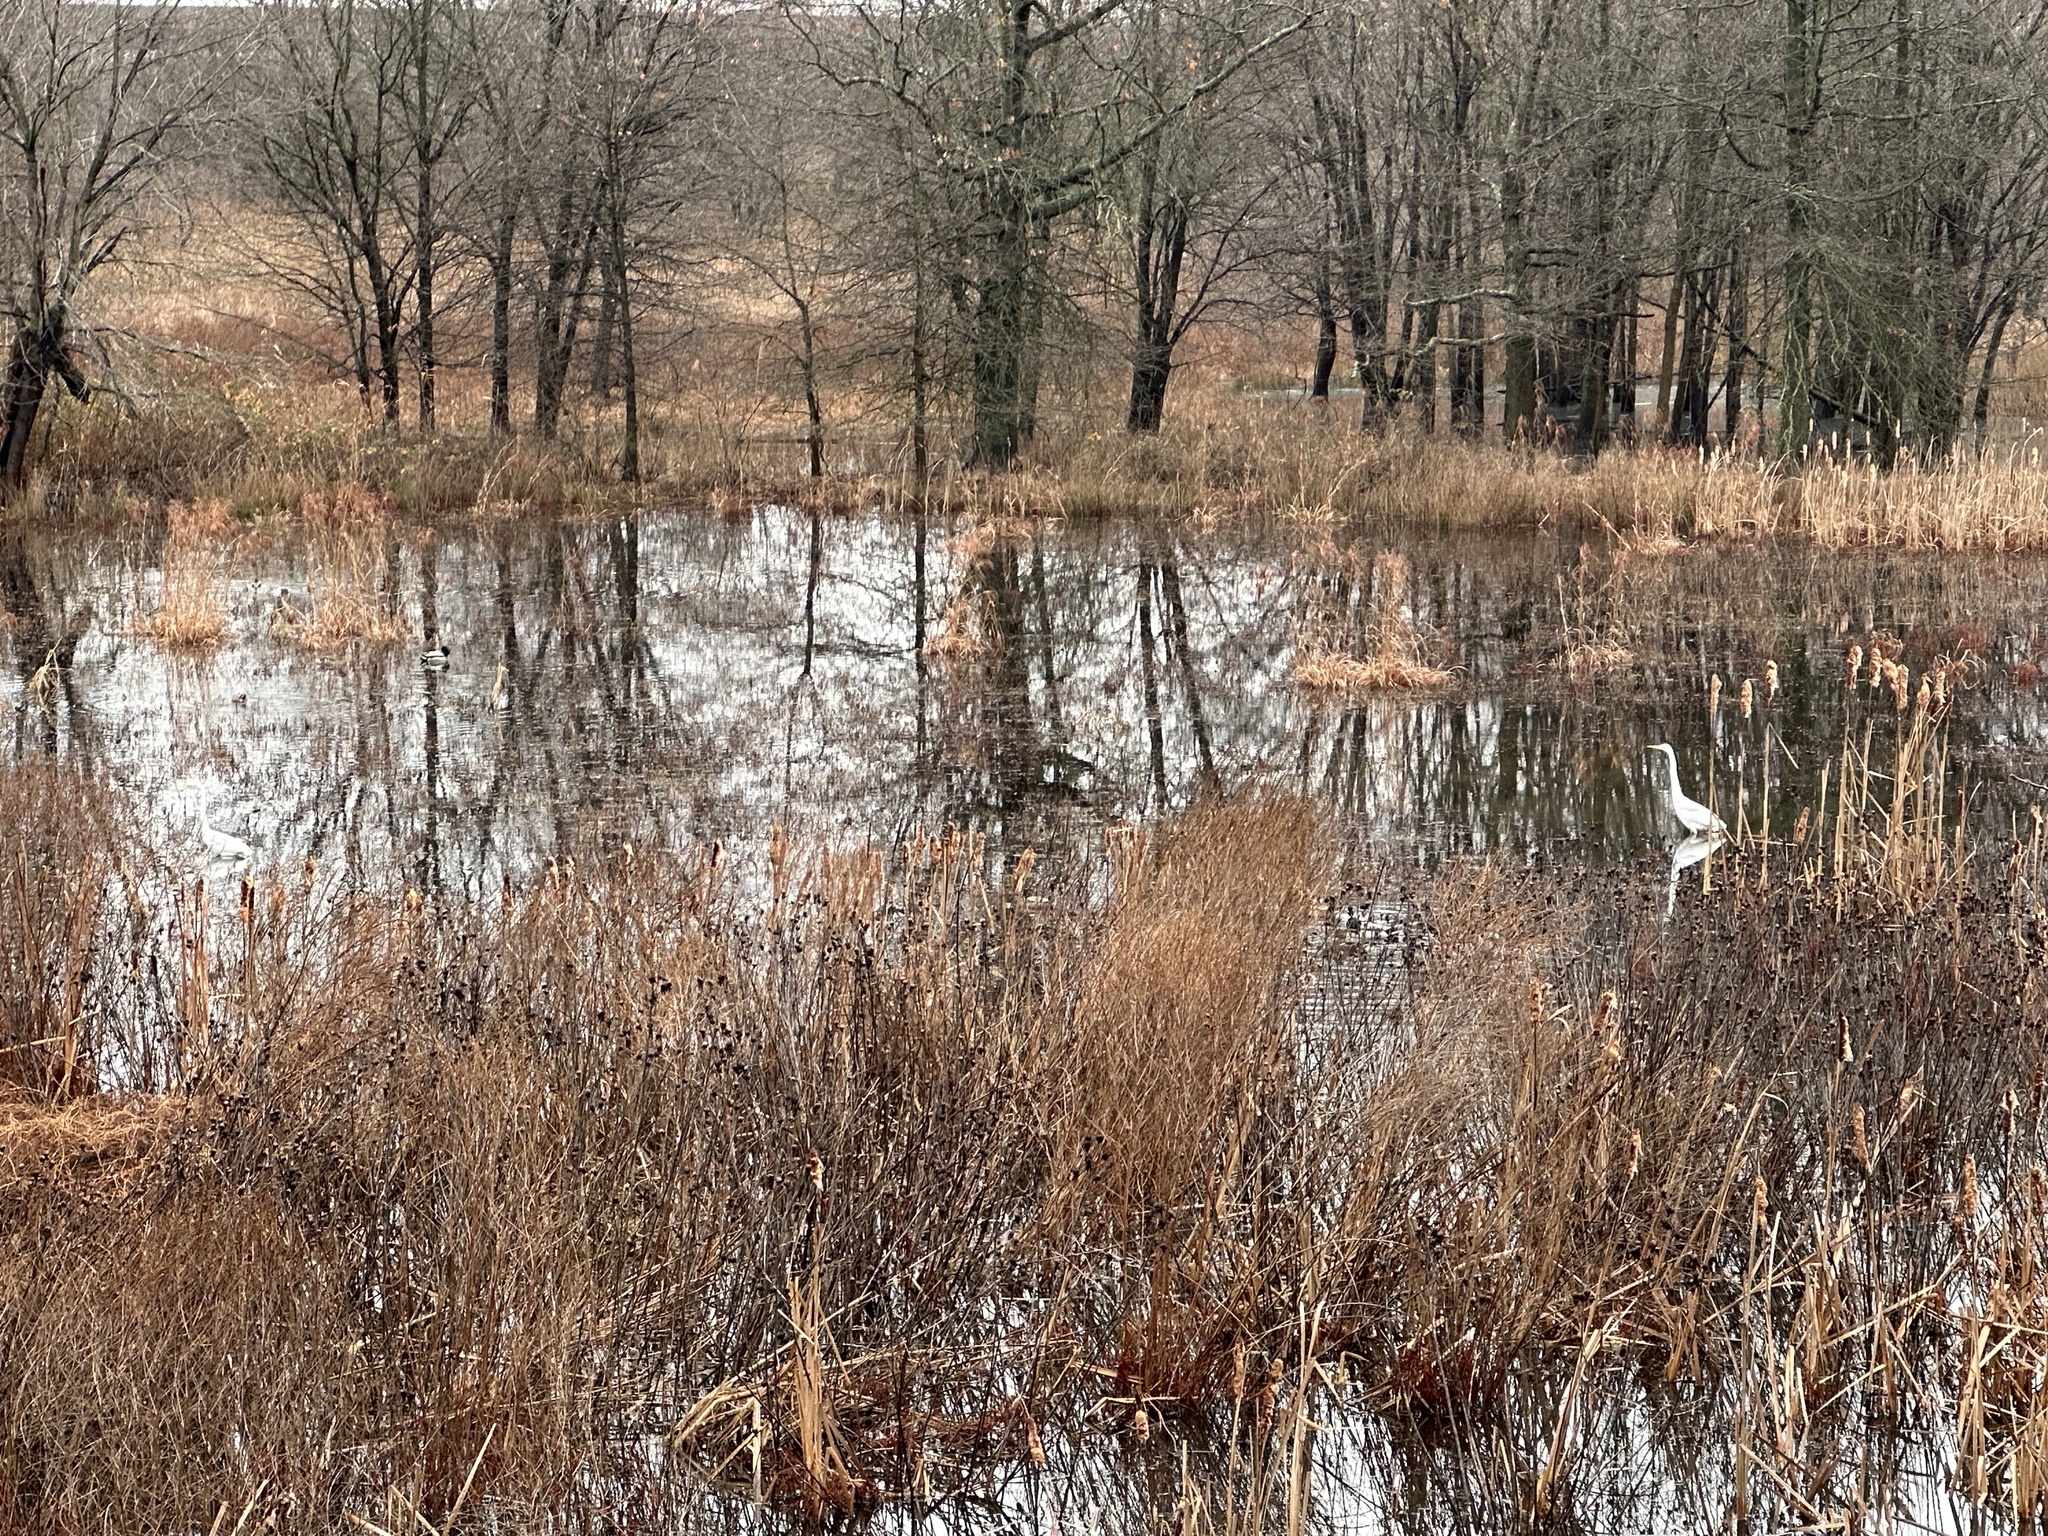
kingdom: Animalia
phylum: Chordata
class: Aves
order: Pelecaniformes
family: Ardeidae
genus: Ardea
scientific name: Ardea alba
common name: Great egret
